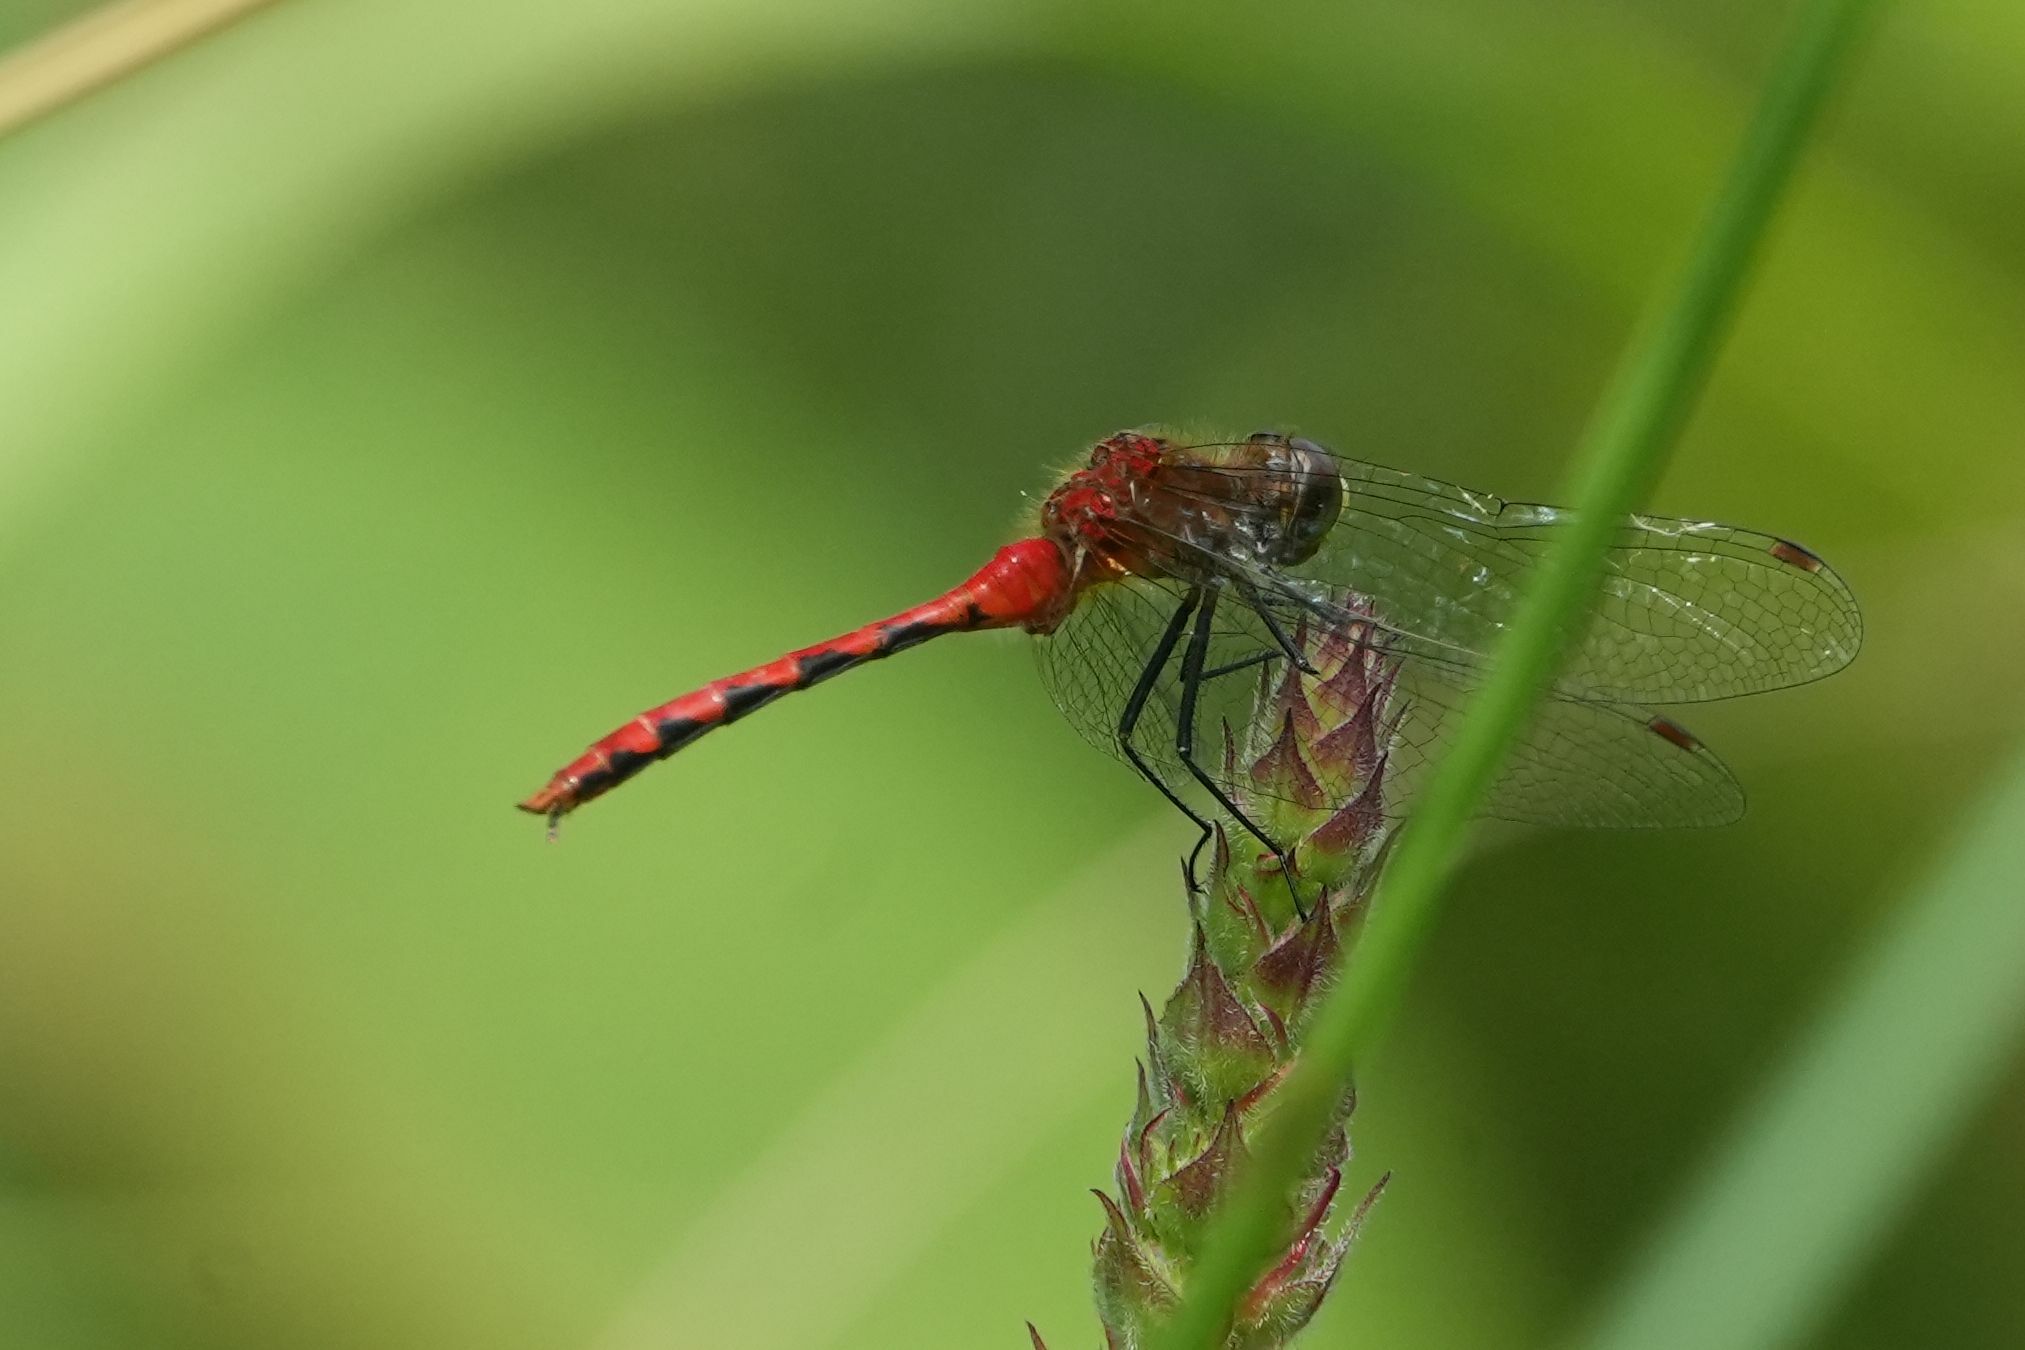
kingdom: Animalia
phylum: Arthropoda
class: Insecta
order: Odonata
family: Libellulidae
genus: Sympetrum
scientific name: Sympetrum obtrusum
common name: White-faced meadowhawk
